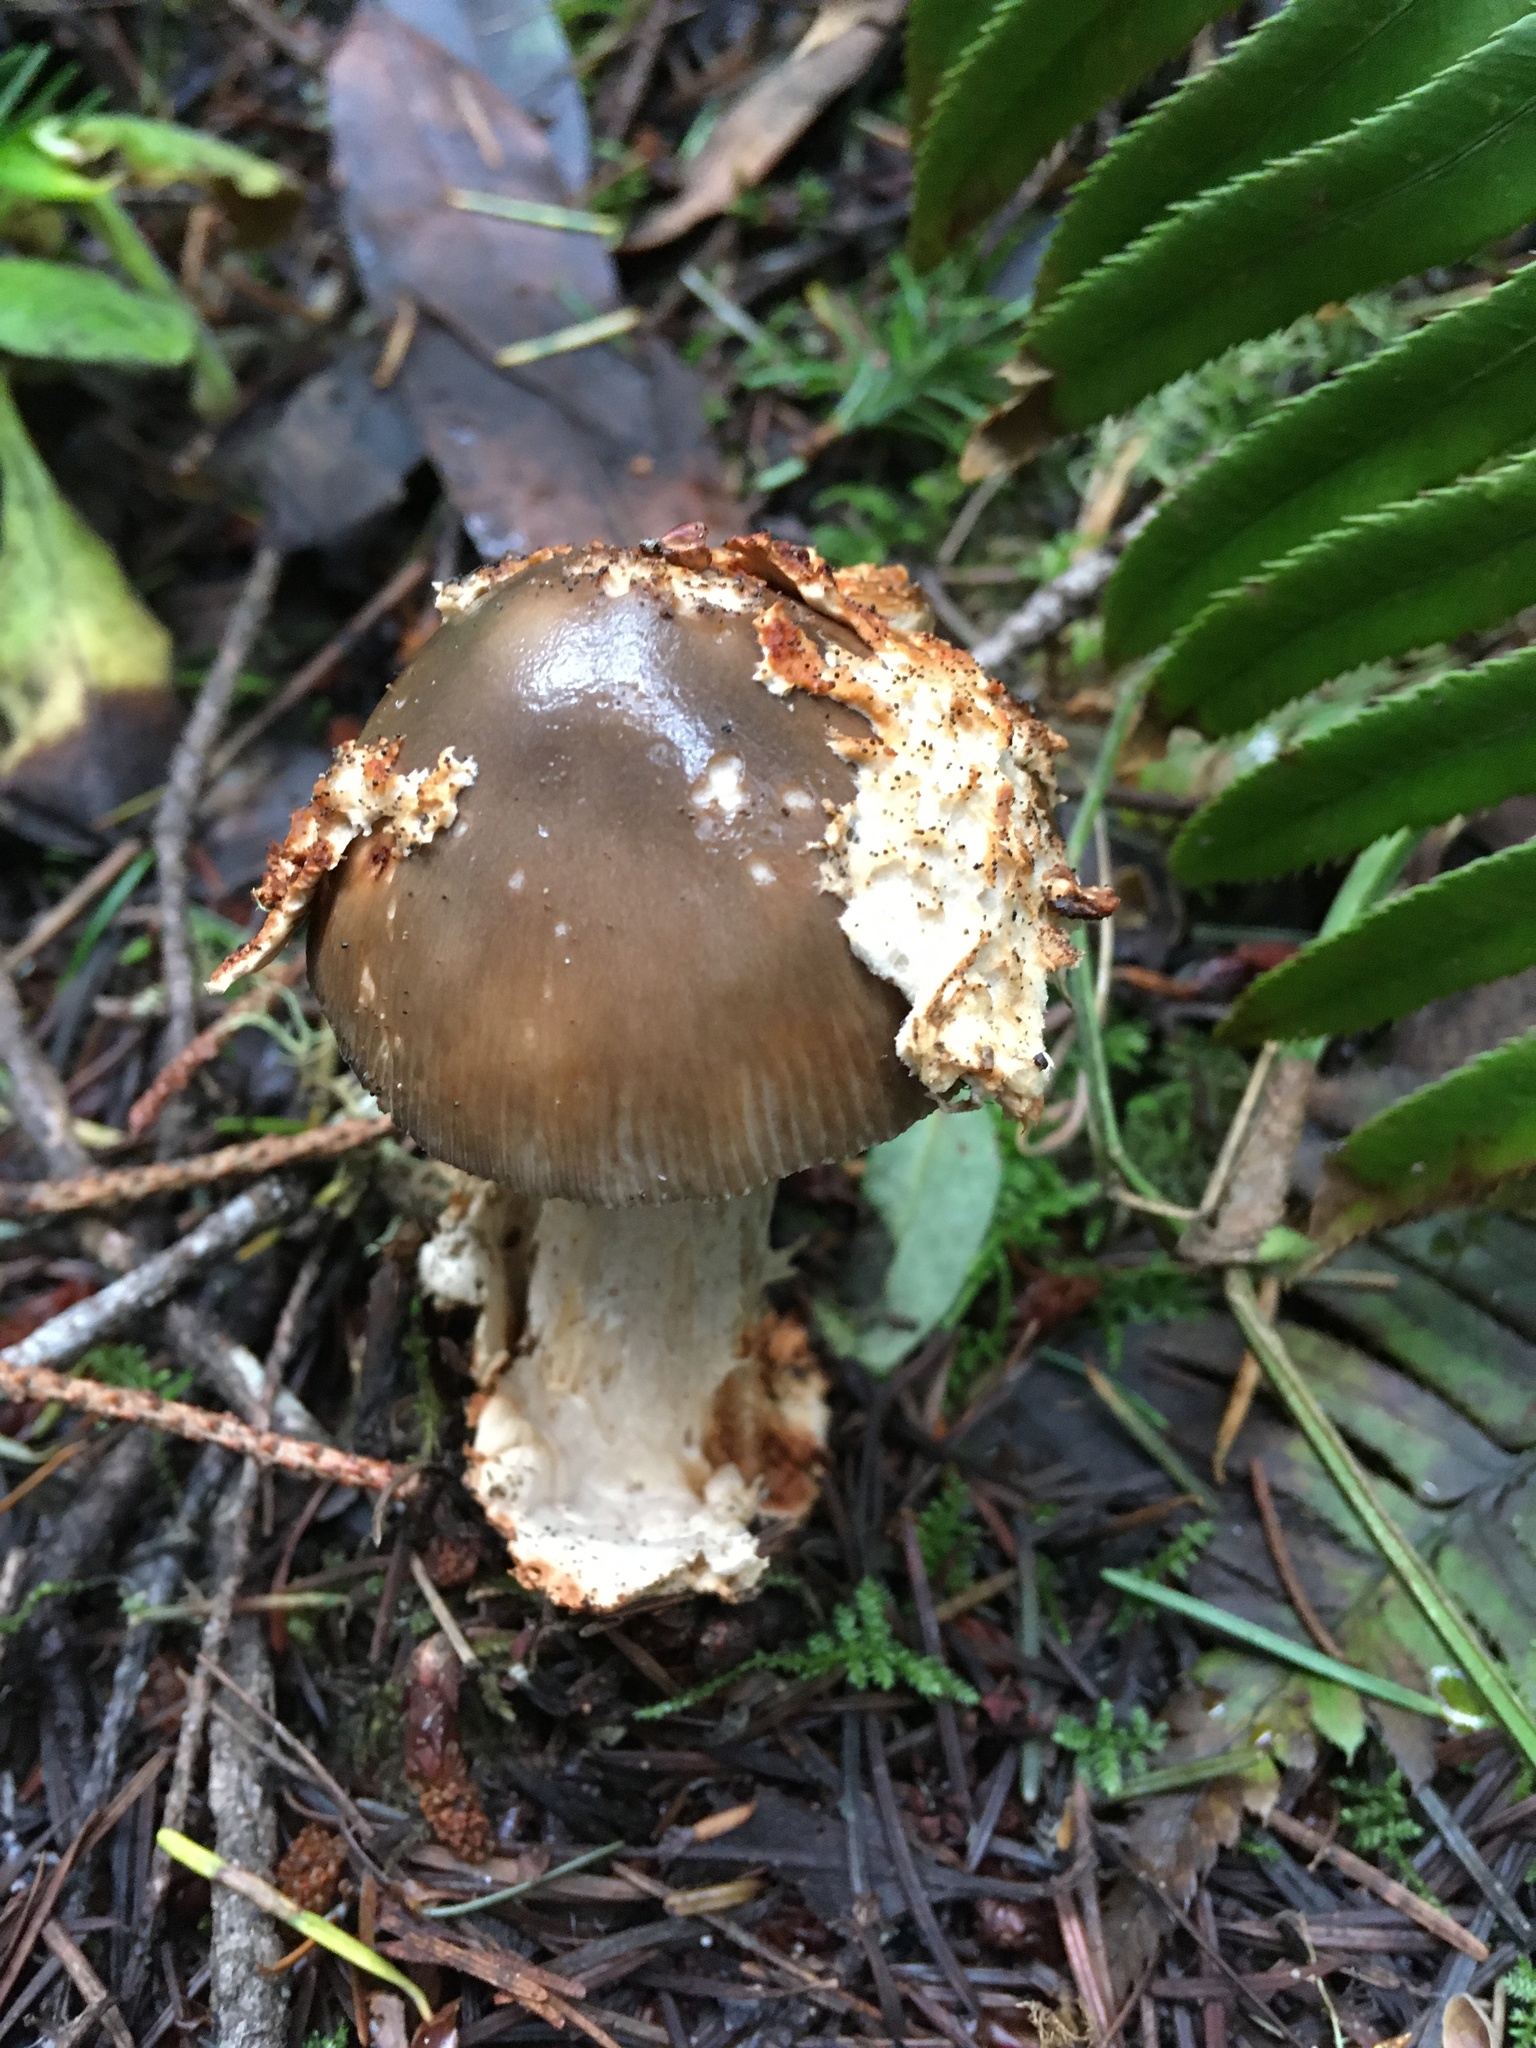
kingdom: Fungi
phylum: Basidiomycota
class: Agaricomycetes
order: Agaricales
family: Amanitaceae
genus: Amanita
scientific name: Amanita pachycolea
